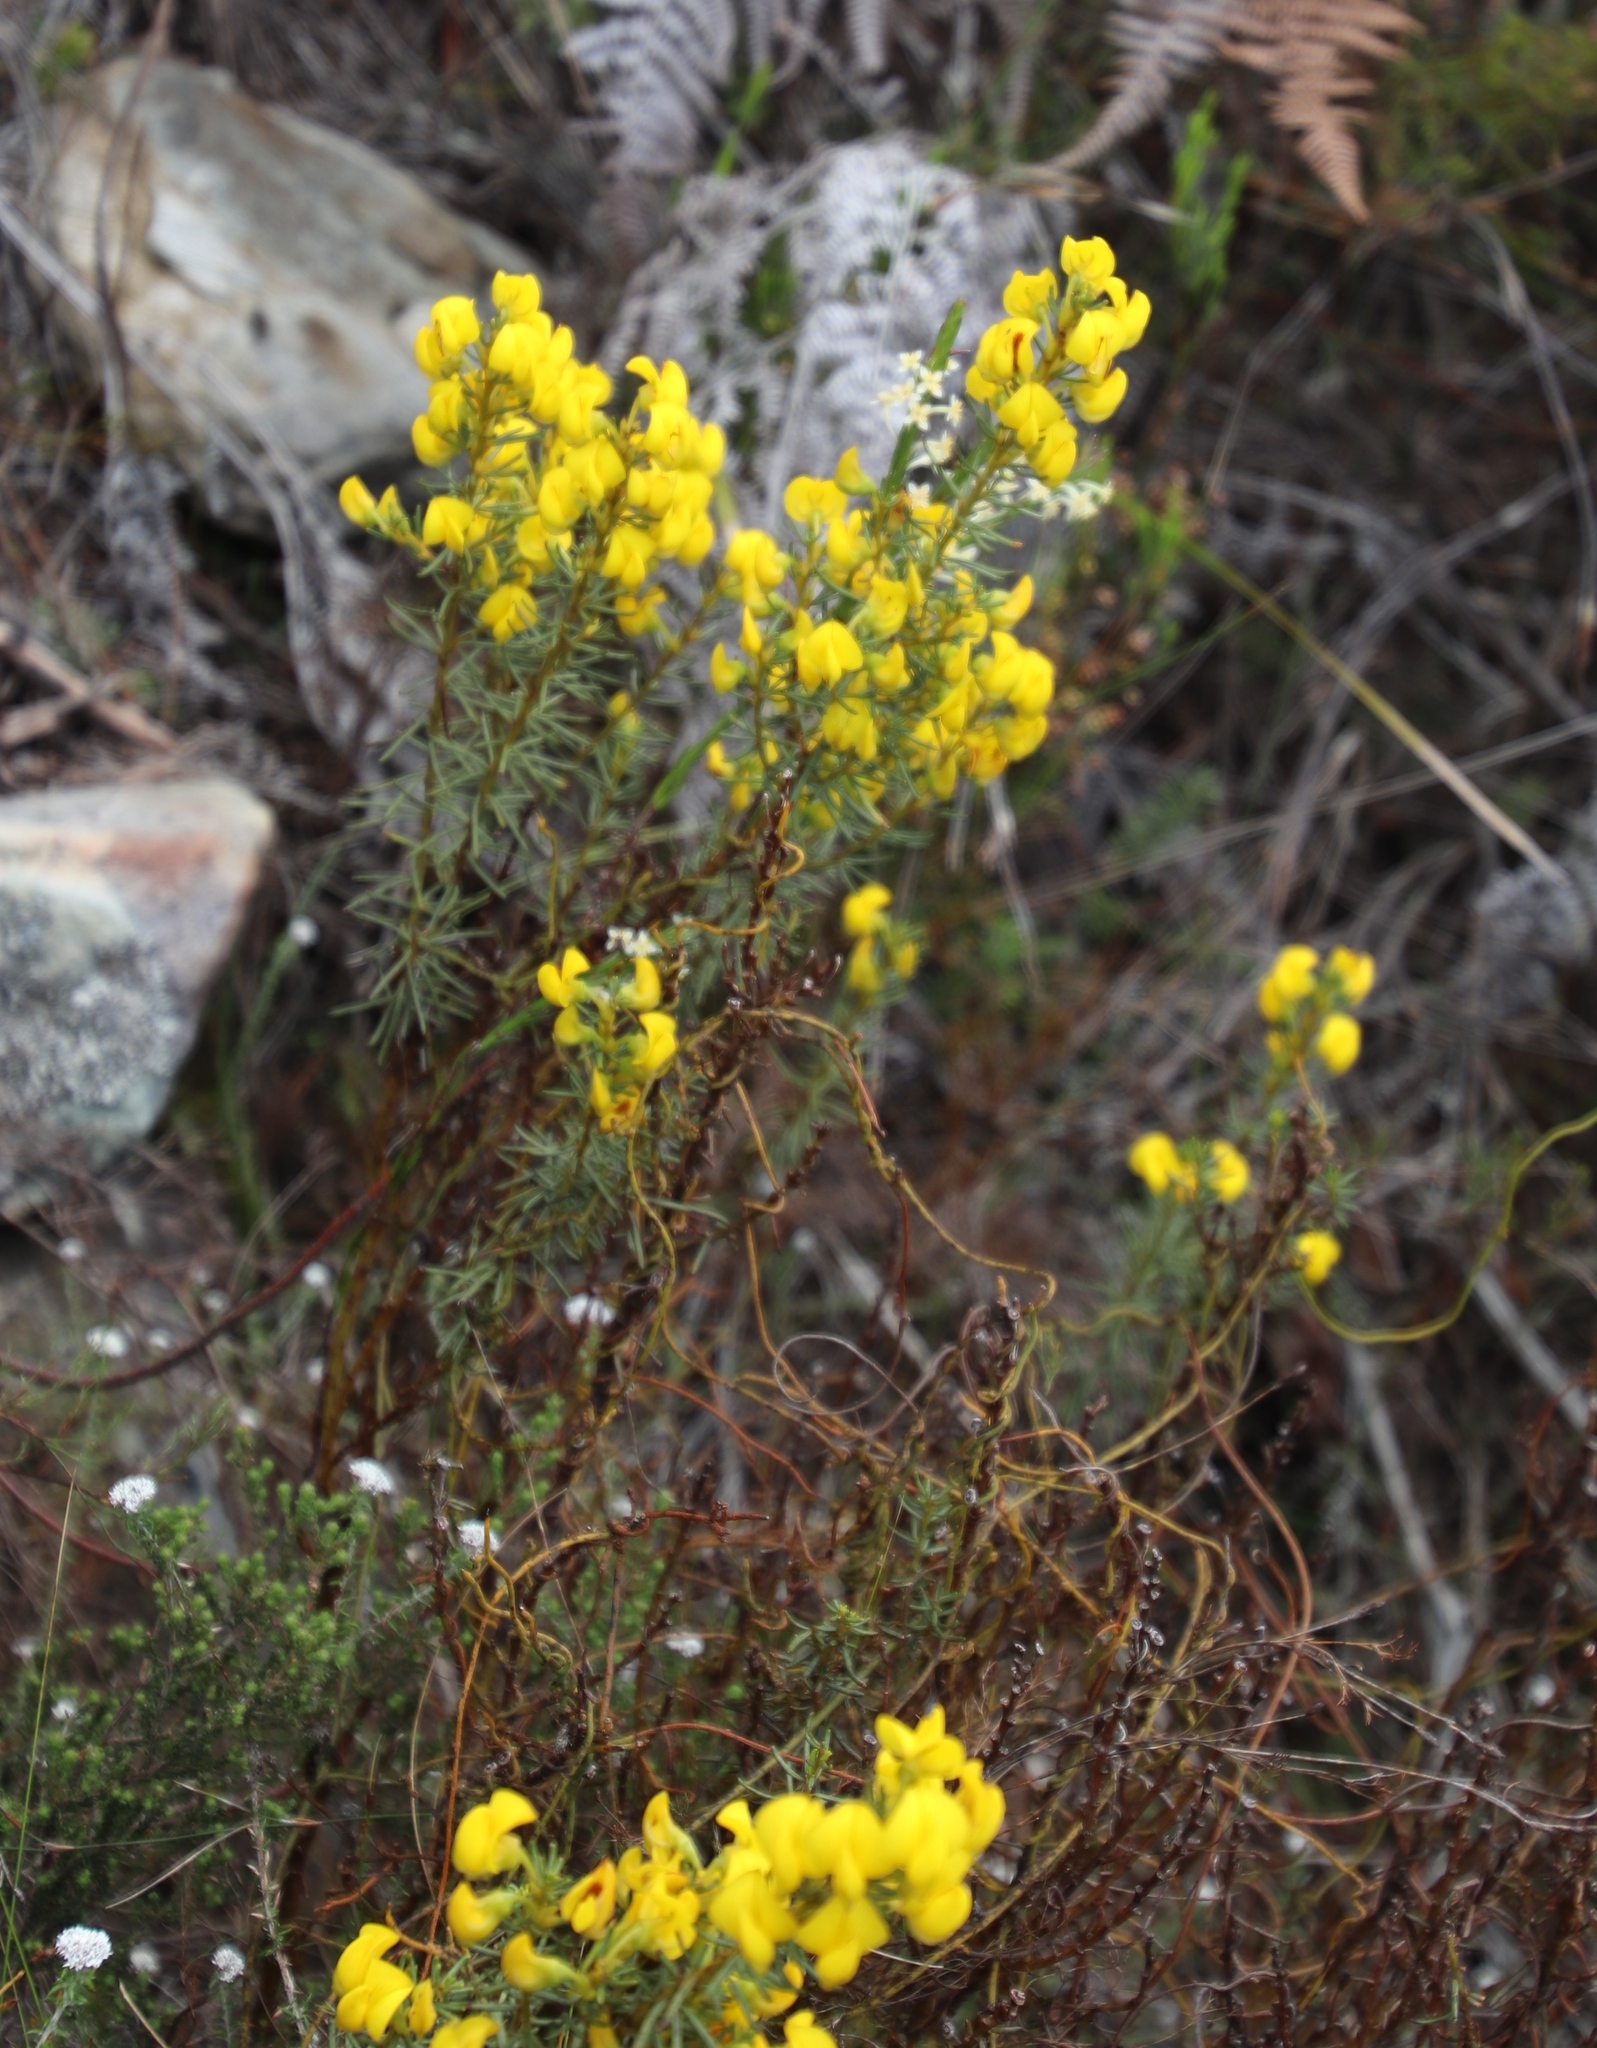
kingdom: Plantae
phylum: Tracheophyta
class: Magnoliopsida
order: Fabales
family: Fabaceae
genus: Cyclopia
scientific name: Cyclopia genistoides
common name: Honeybush tea
